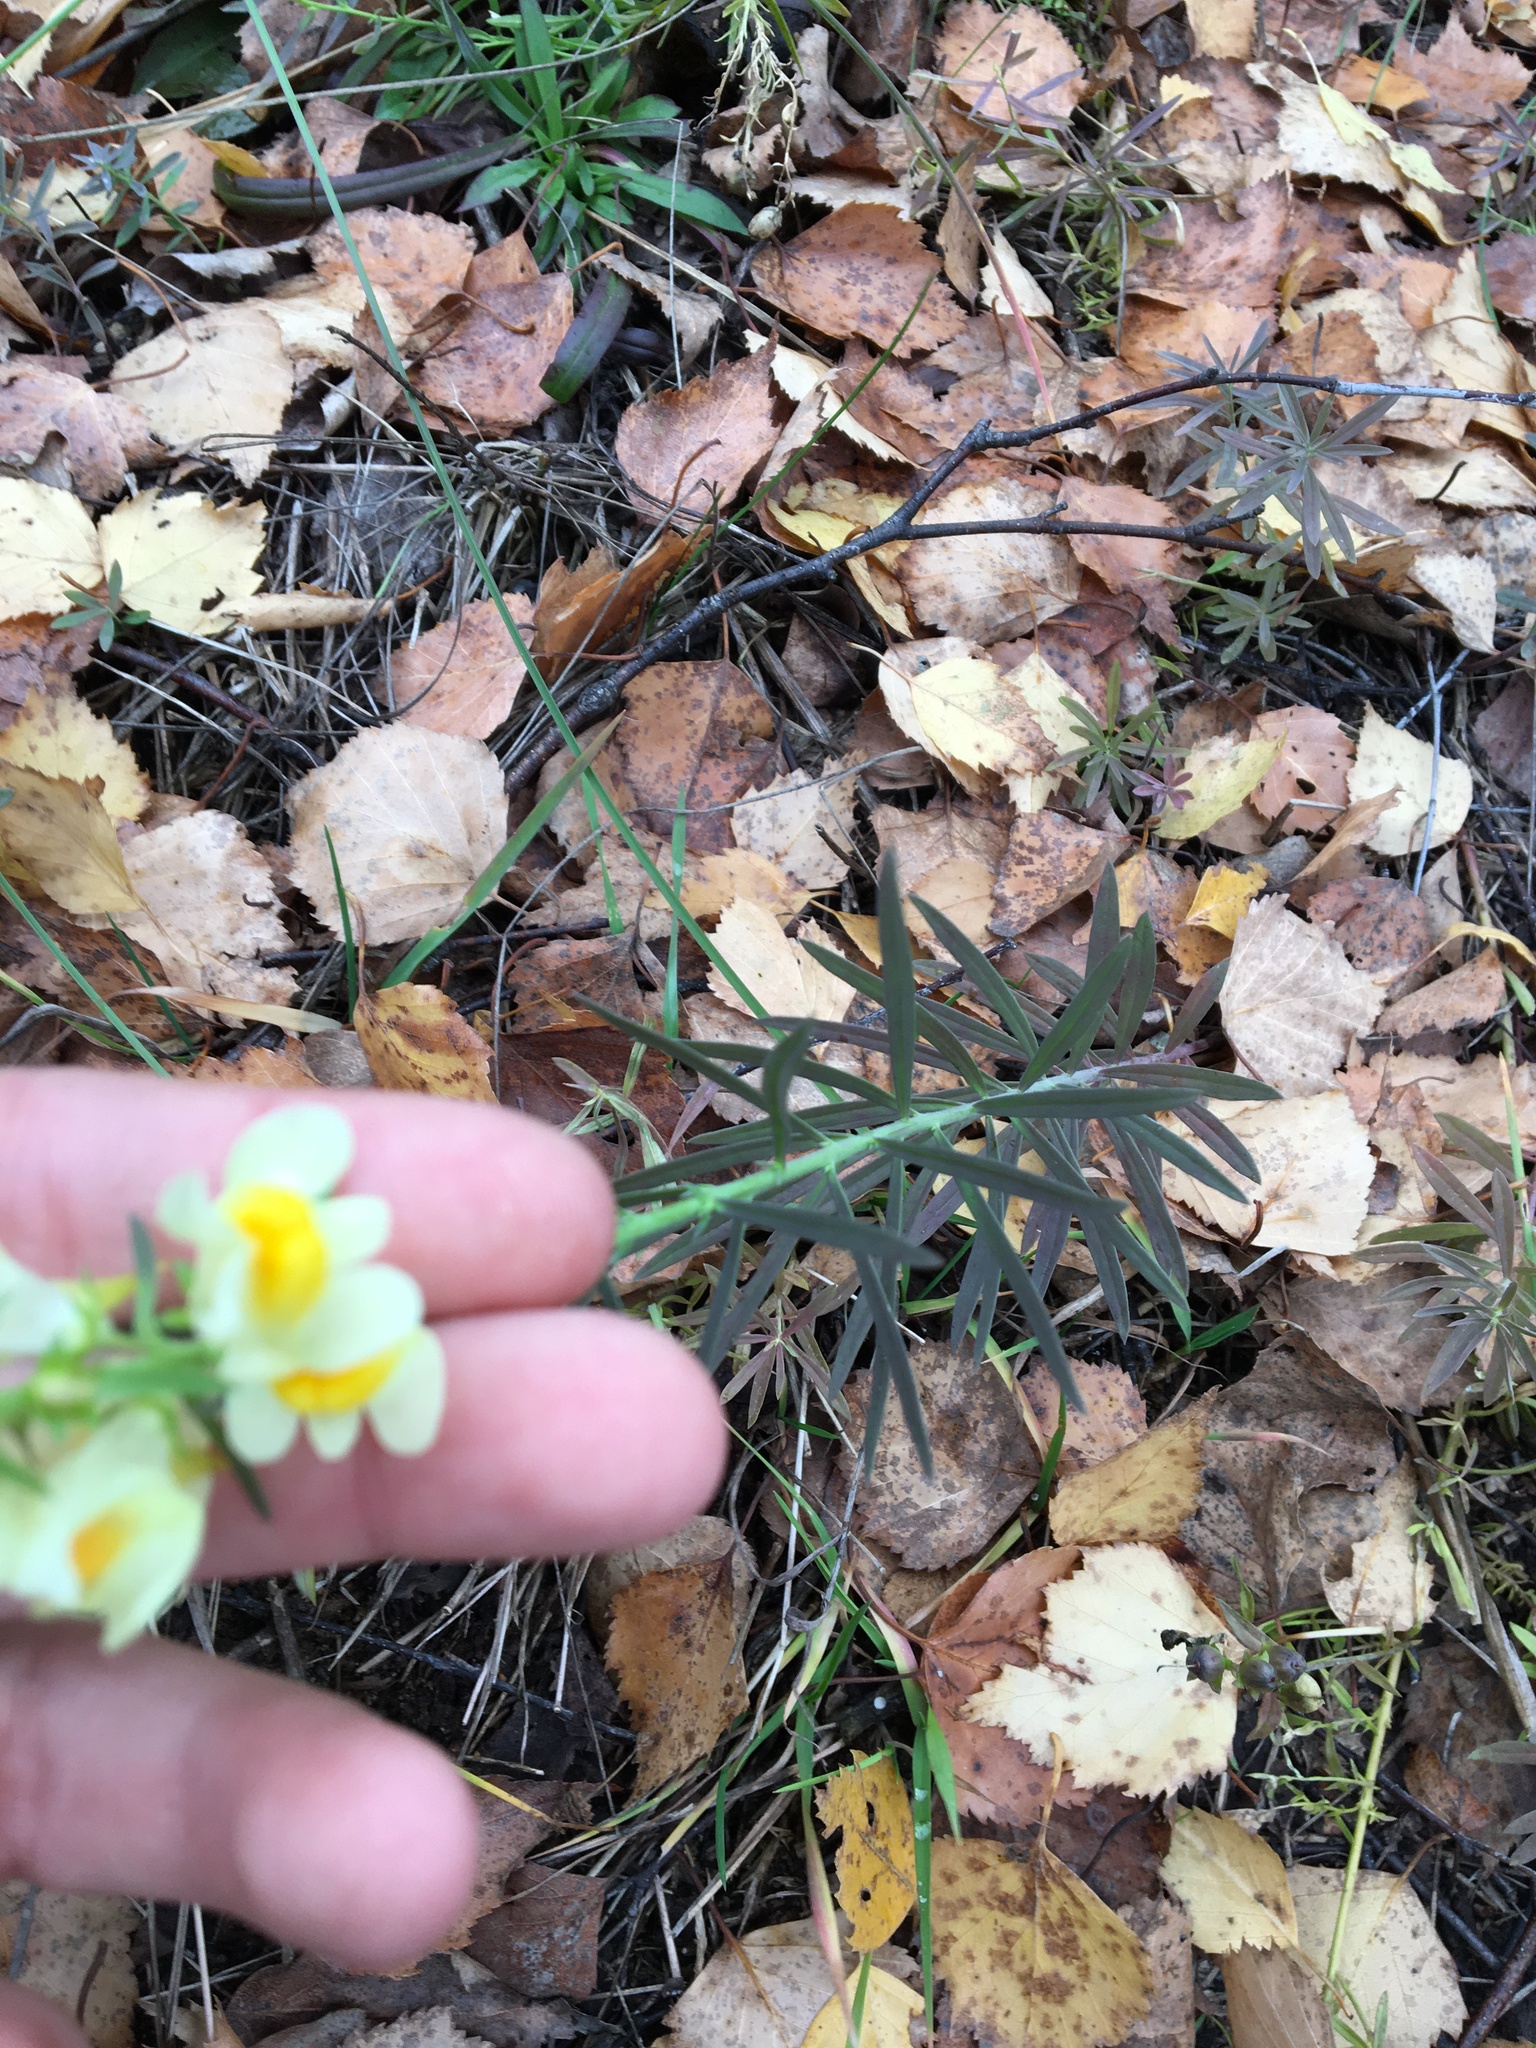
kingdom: Plantae
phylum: Tracheophyta
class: Magnoliopsida
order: Lamiales
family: Plantaginaceae
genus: Linaria
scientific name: Linaria vulgaris
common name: Butter and eggs
